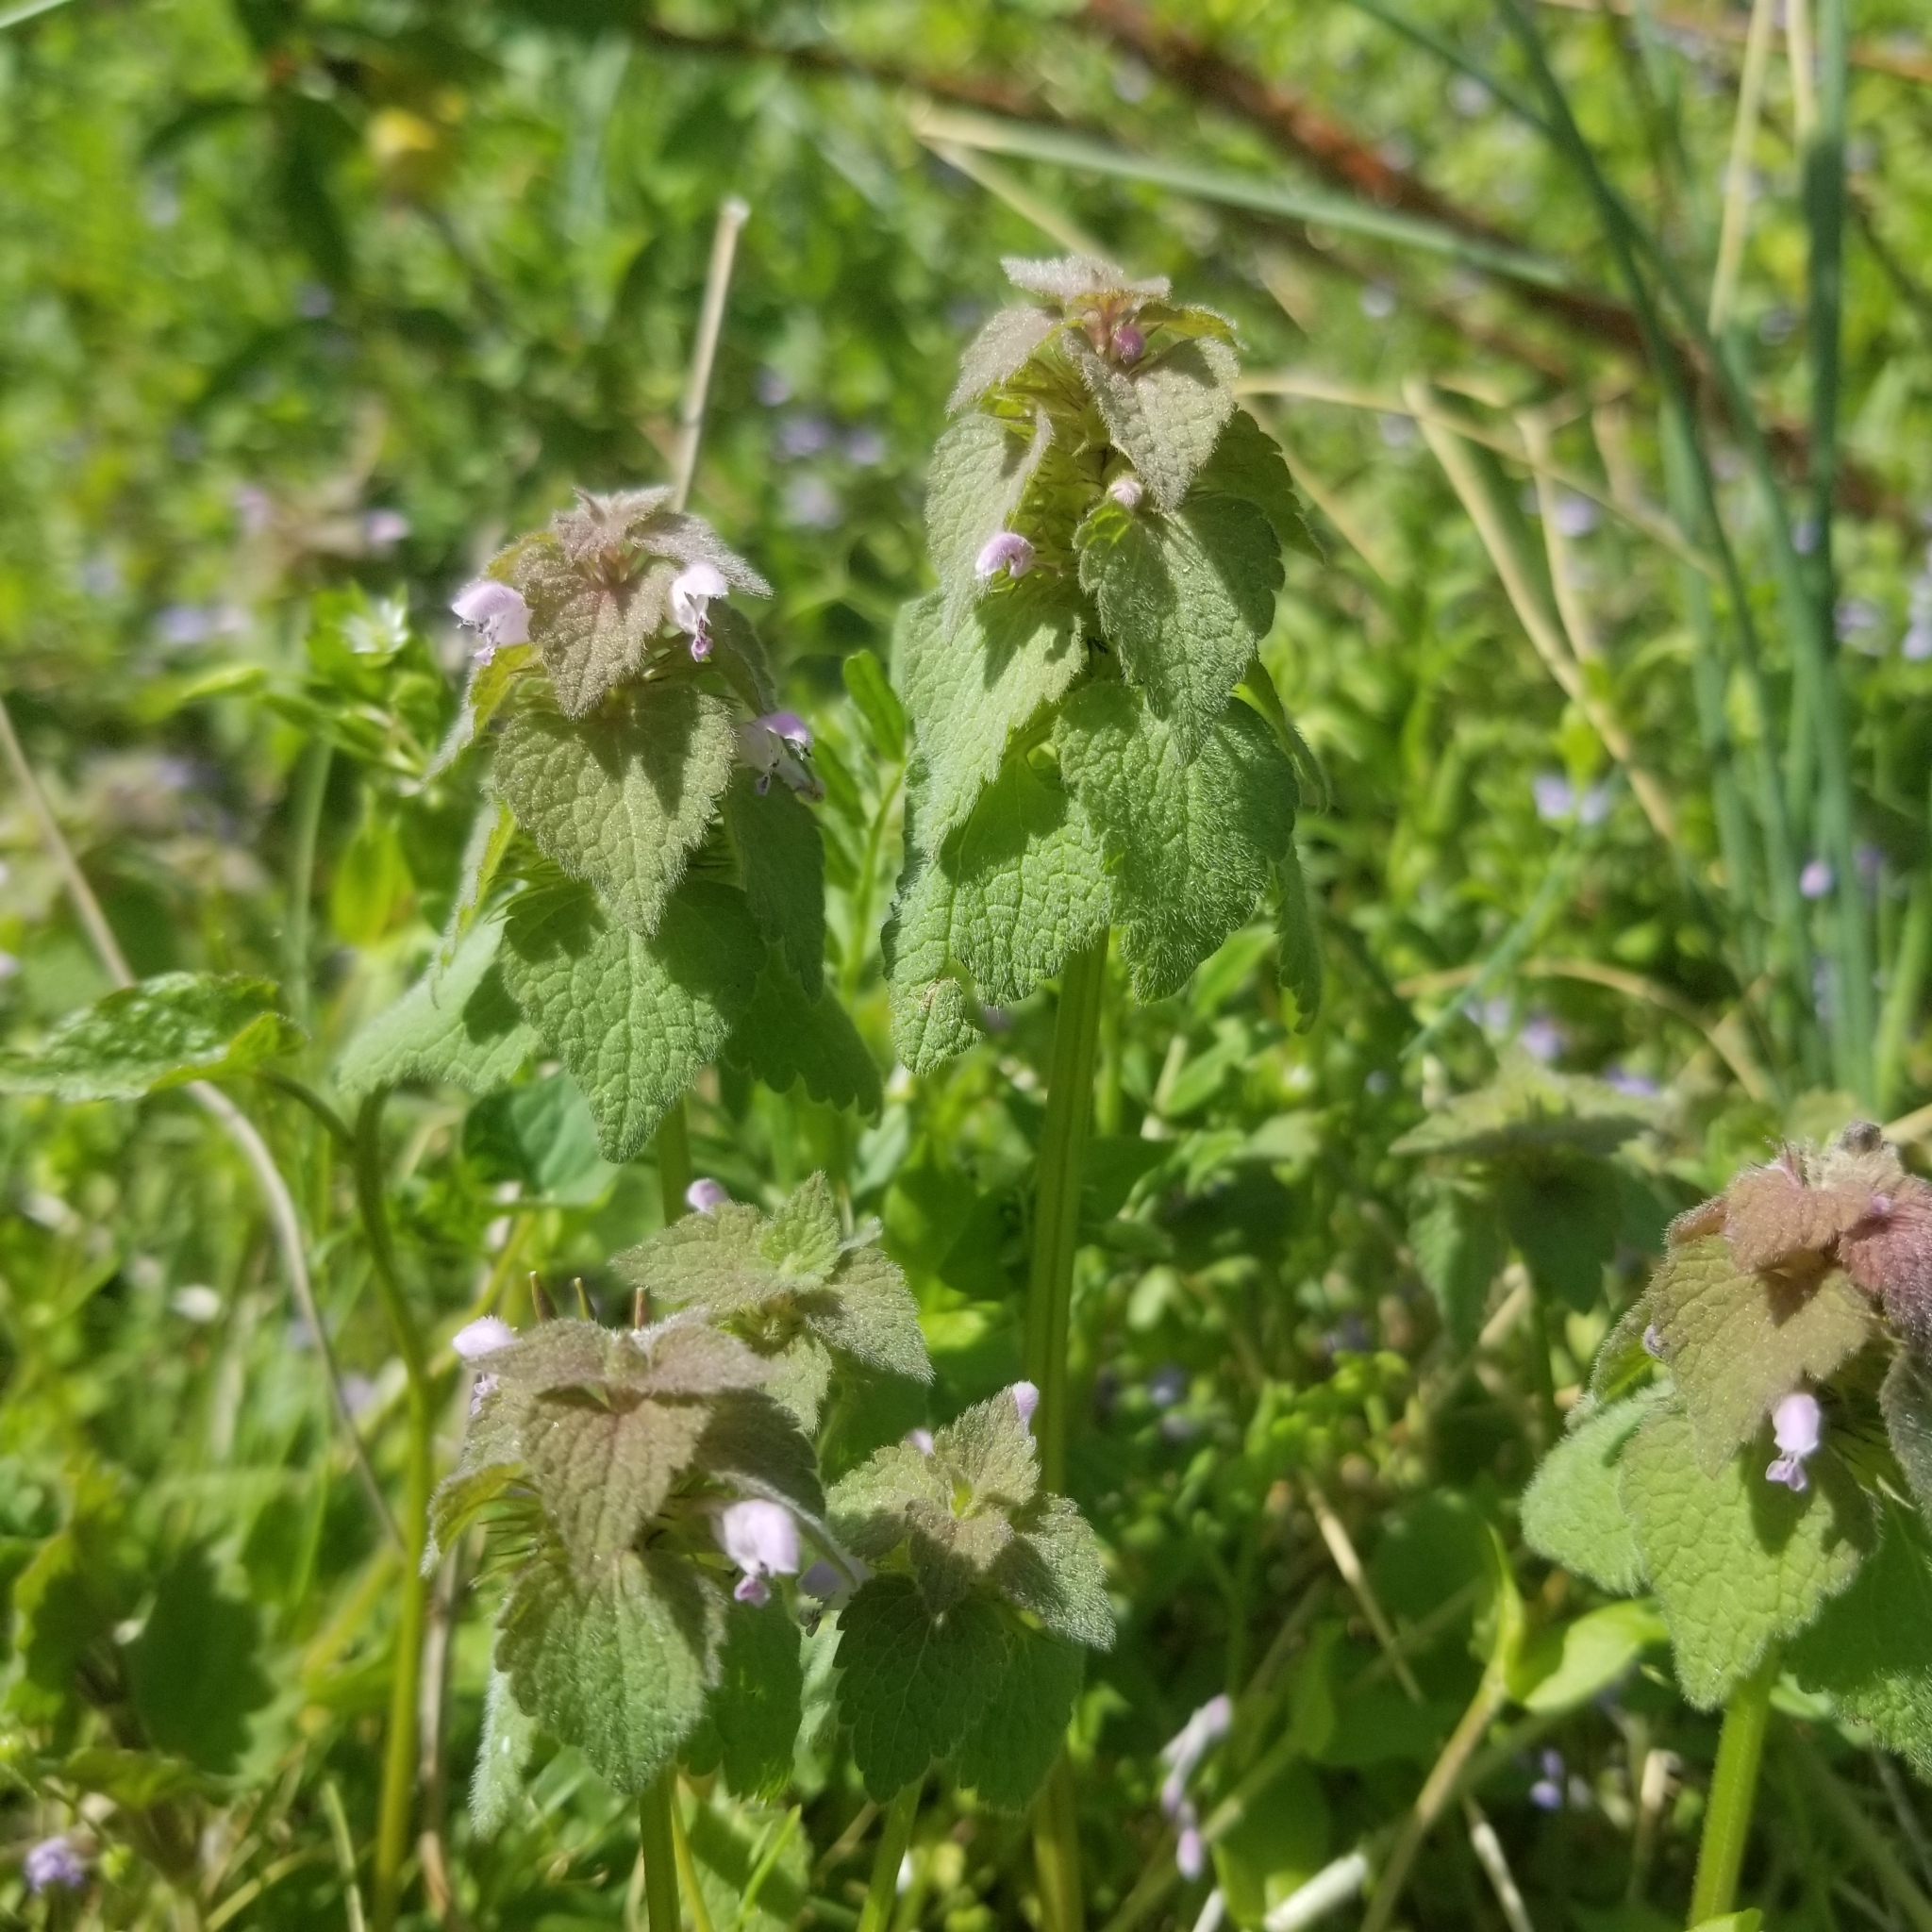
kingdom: Plantae
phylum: Tracheophyta
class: Magnoliopsida
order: Lamiales
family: Lamiaceae
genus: Lamium
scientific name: Lamium purpureum
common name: Red dead-nettle
